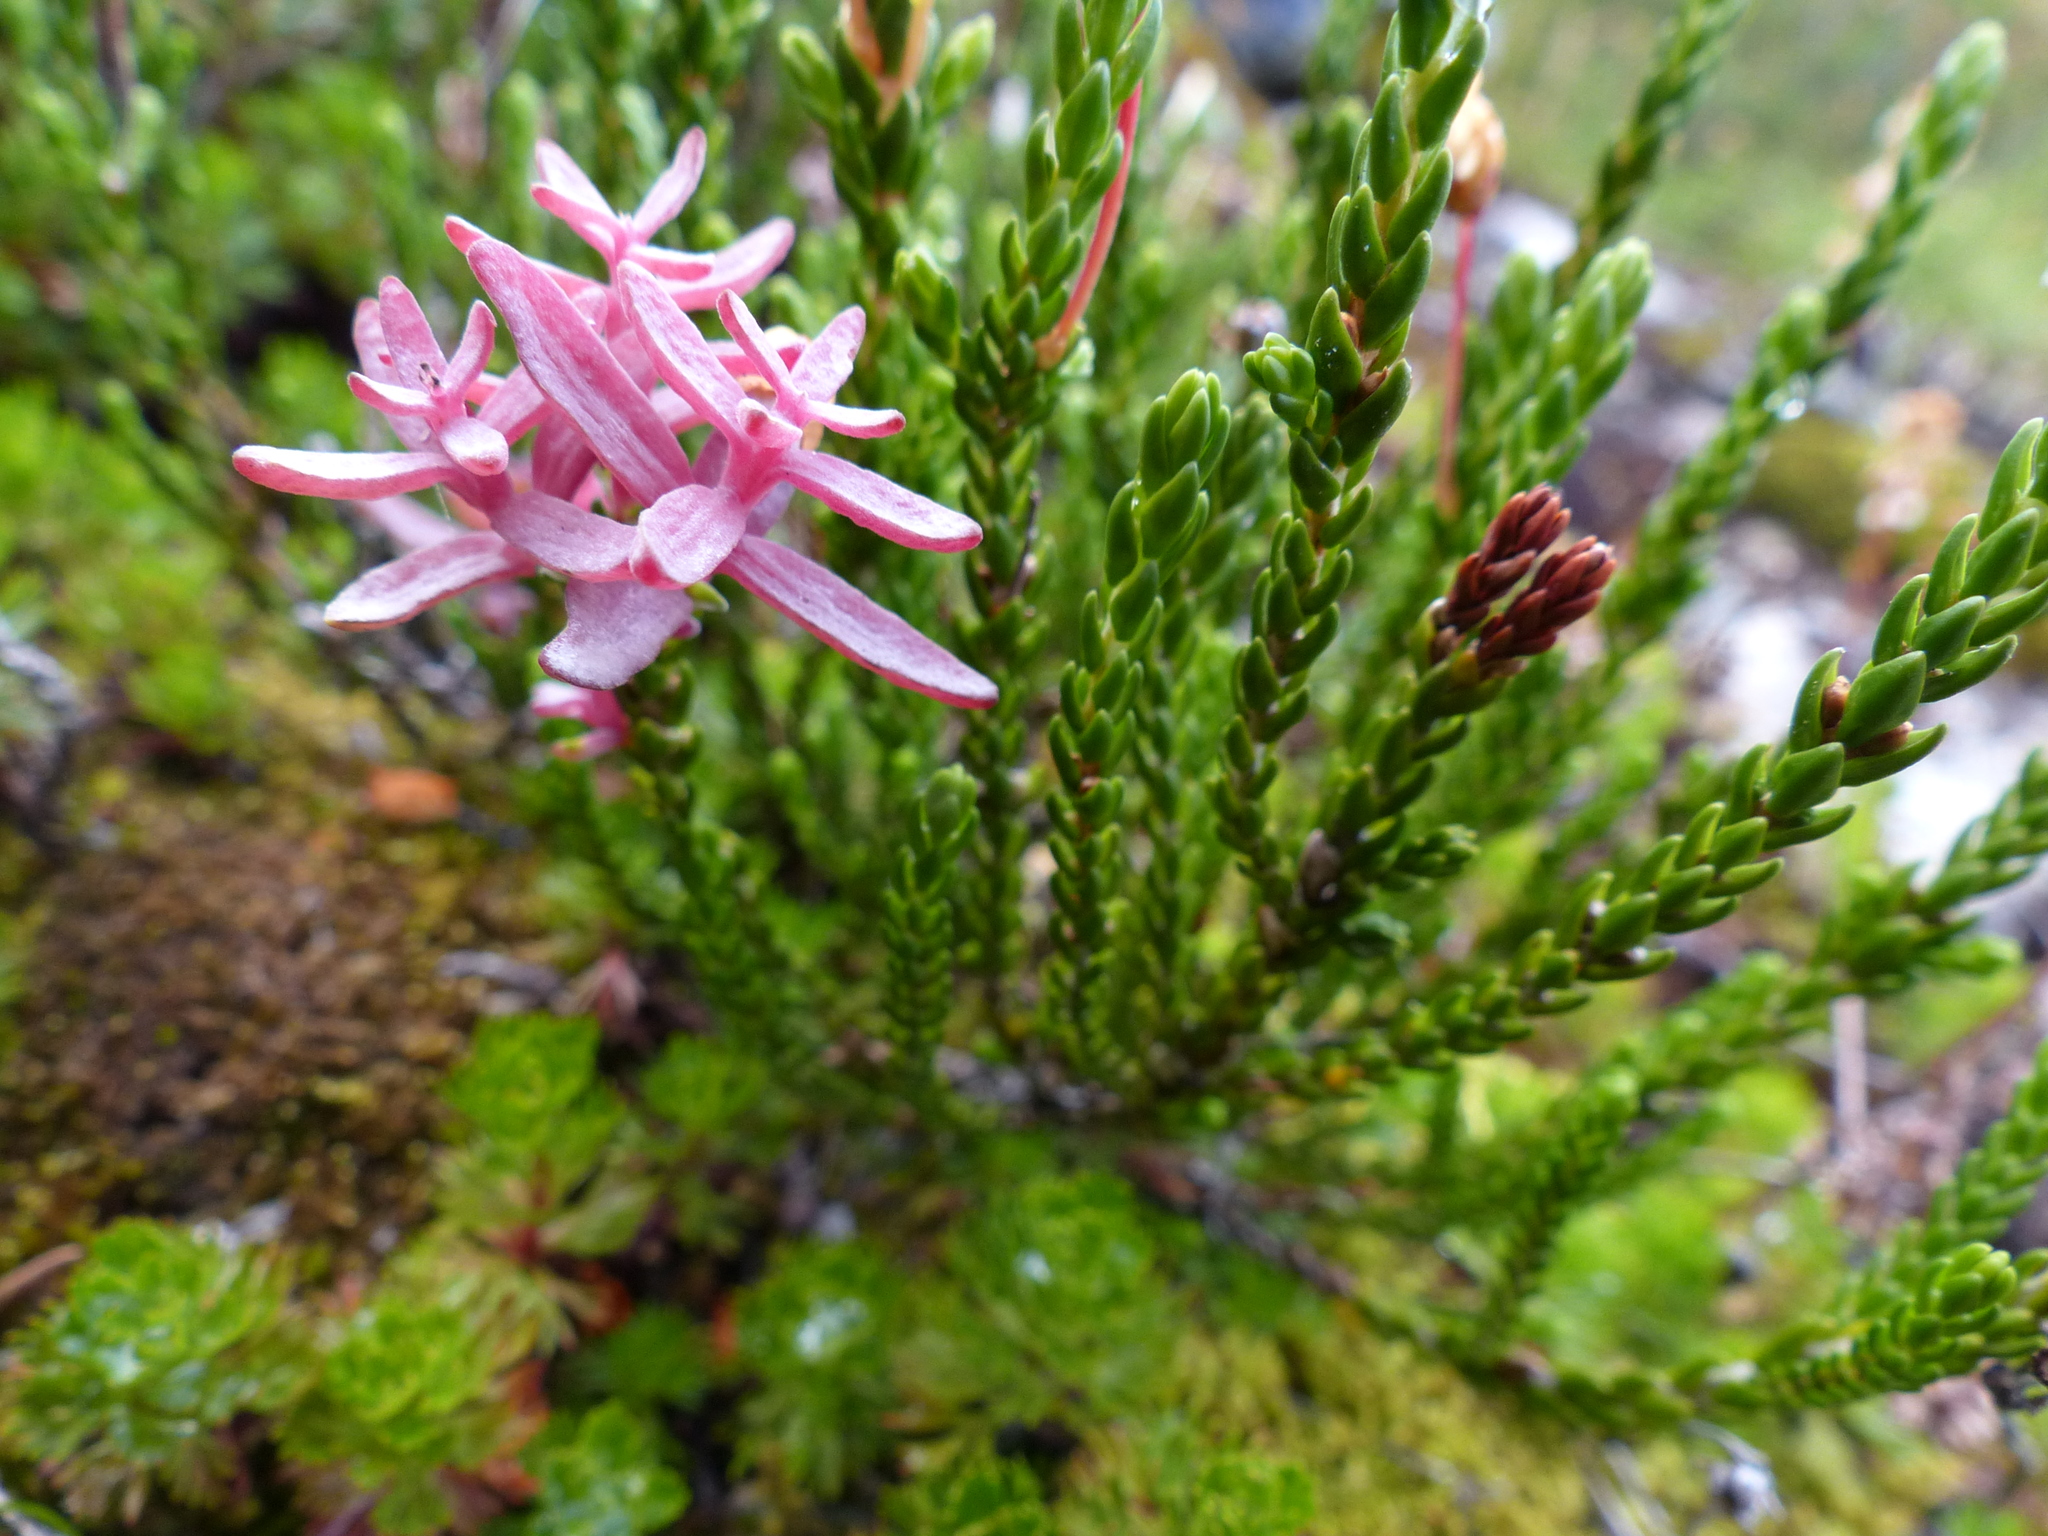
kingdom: Fungi
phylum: Basidiomycota
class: Exobasidiomycetes
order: Exobasidiales
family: Exobasidiaceae
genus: Exobasidium
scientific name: Exobasidium cassiopes
